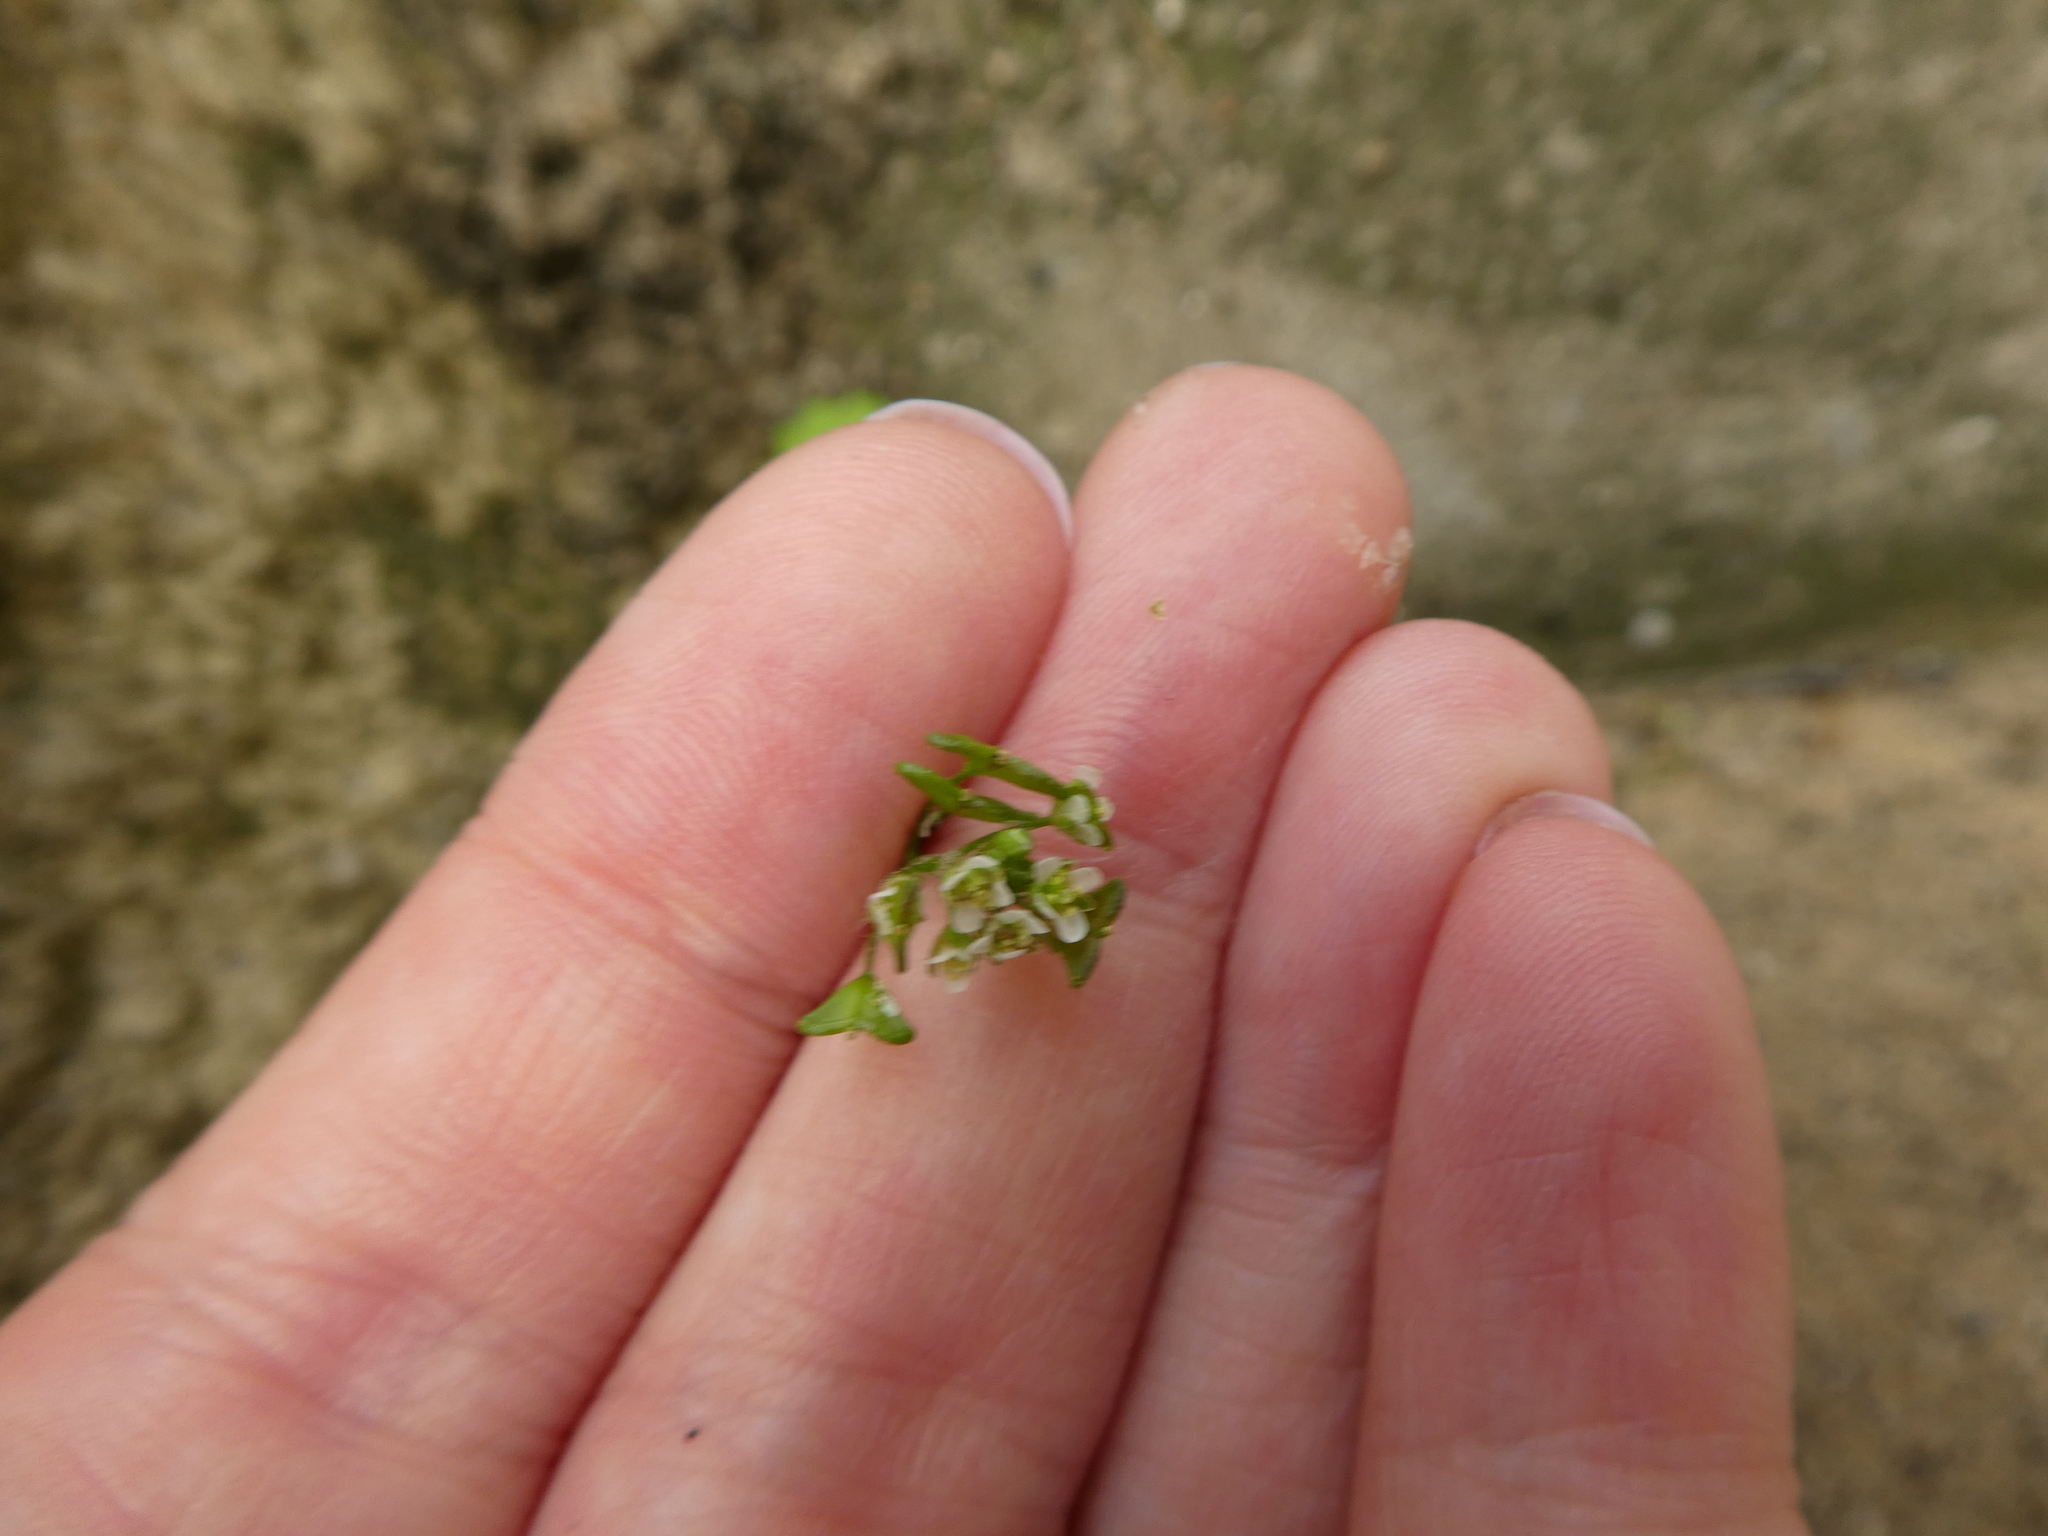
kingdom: Plantae
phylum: Tracheophyta
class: Magnoliopsida
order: Brassicales
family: Brassicaceae
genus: Capsella
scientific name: Capsella bursa-pastoris
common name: Shepherd's purse
